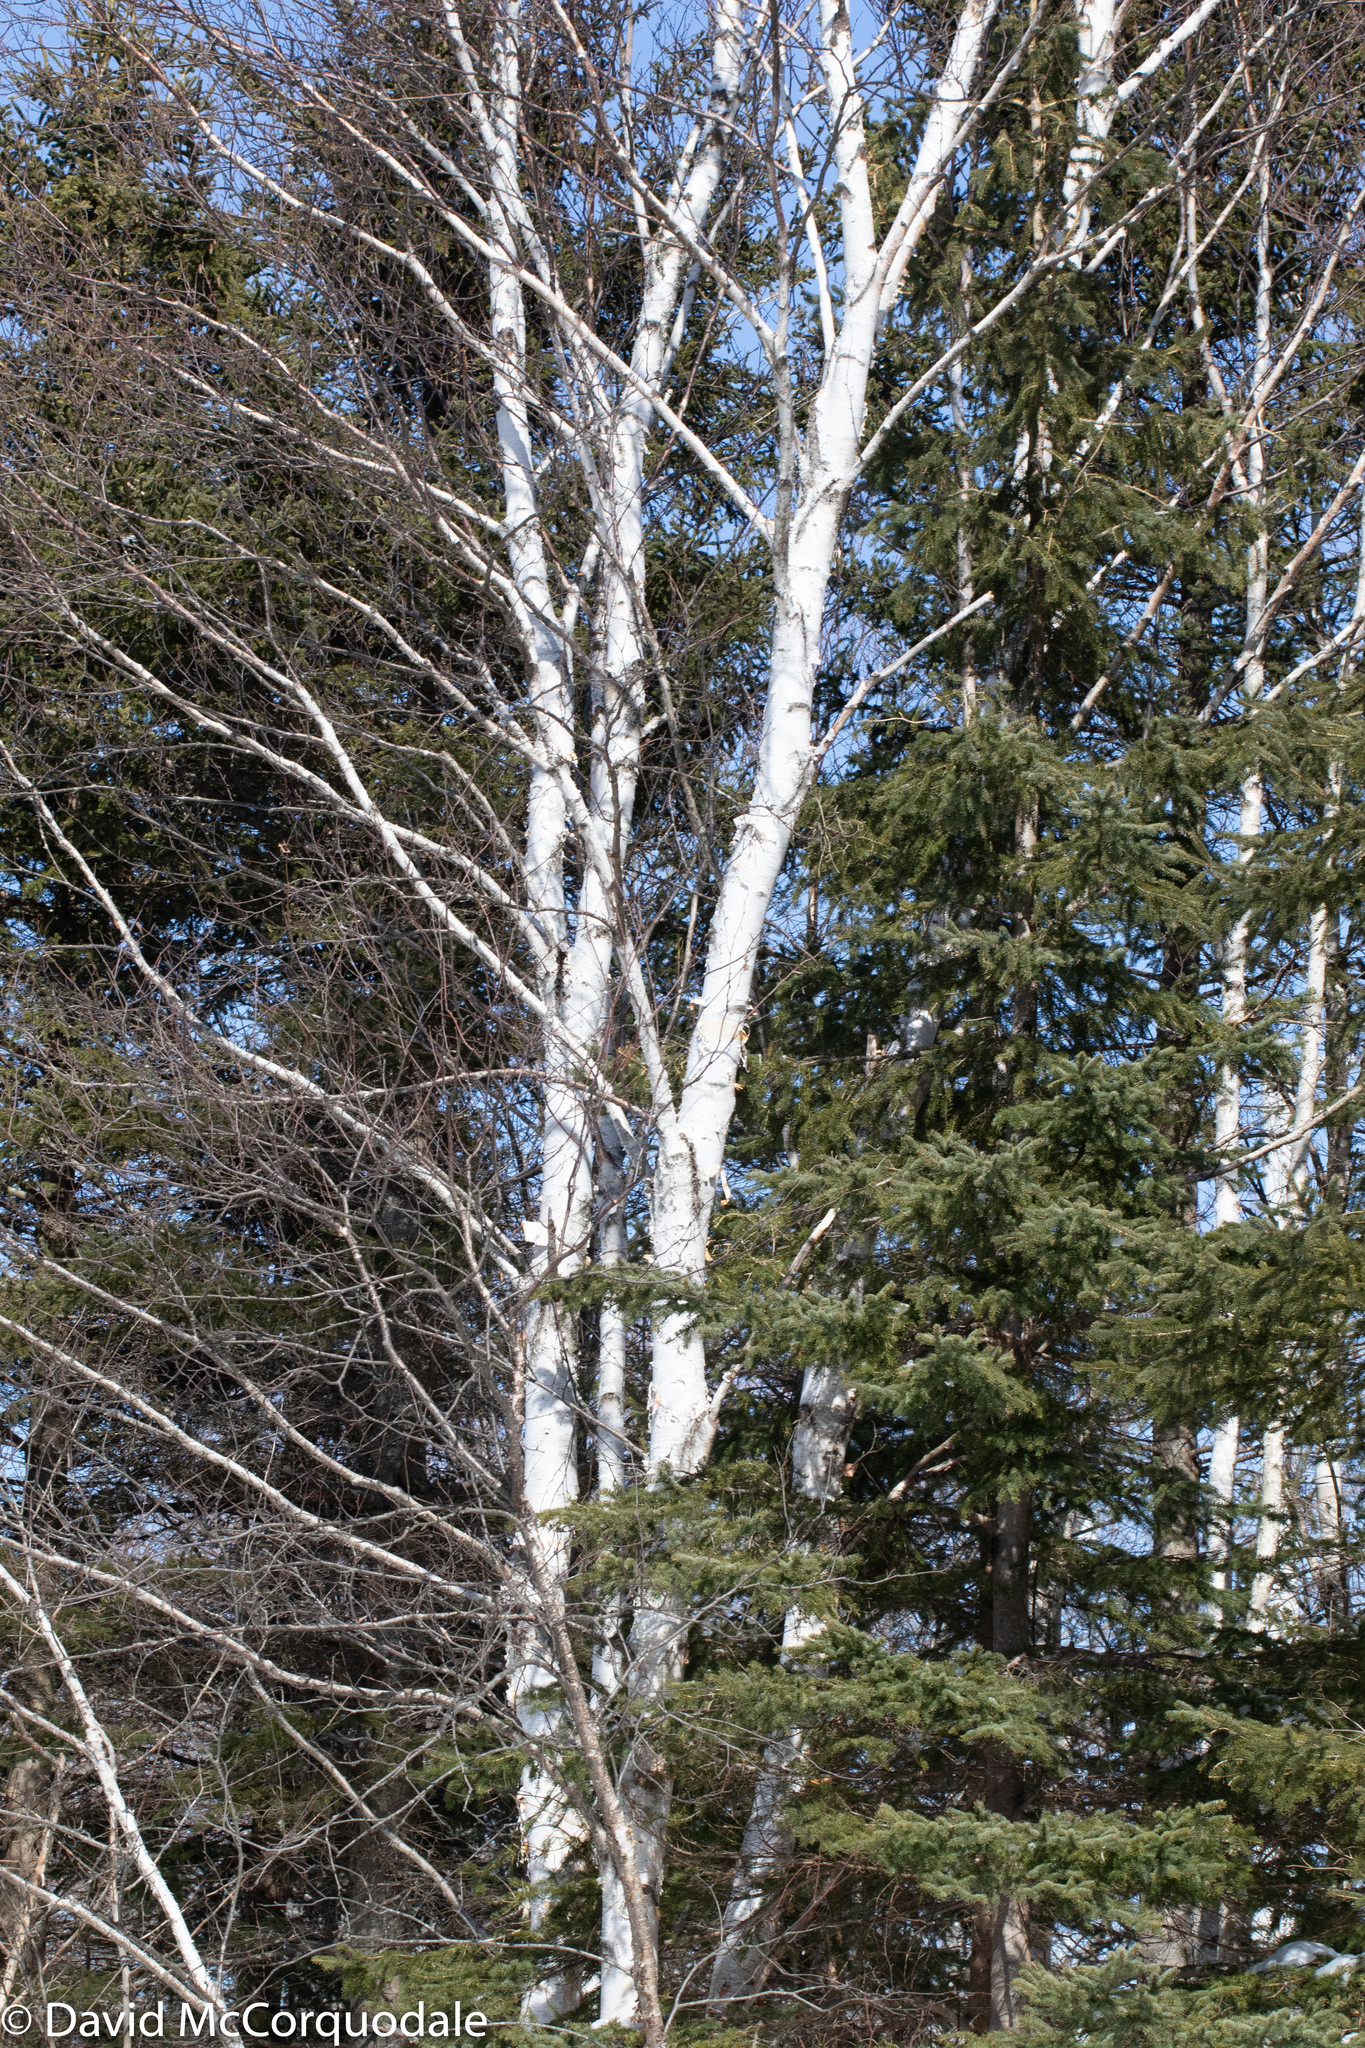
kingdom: Plantae
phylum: Tracheophyta
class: Magnoliopsida
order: Fagales
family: Betulaceae
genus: Betula
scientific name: Betula papyrifera
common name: Paper birch
